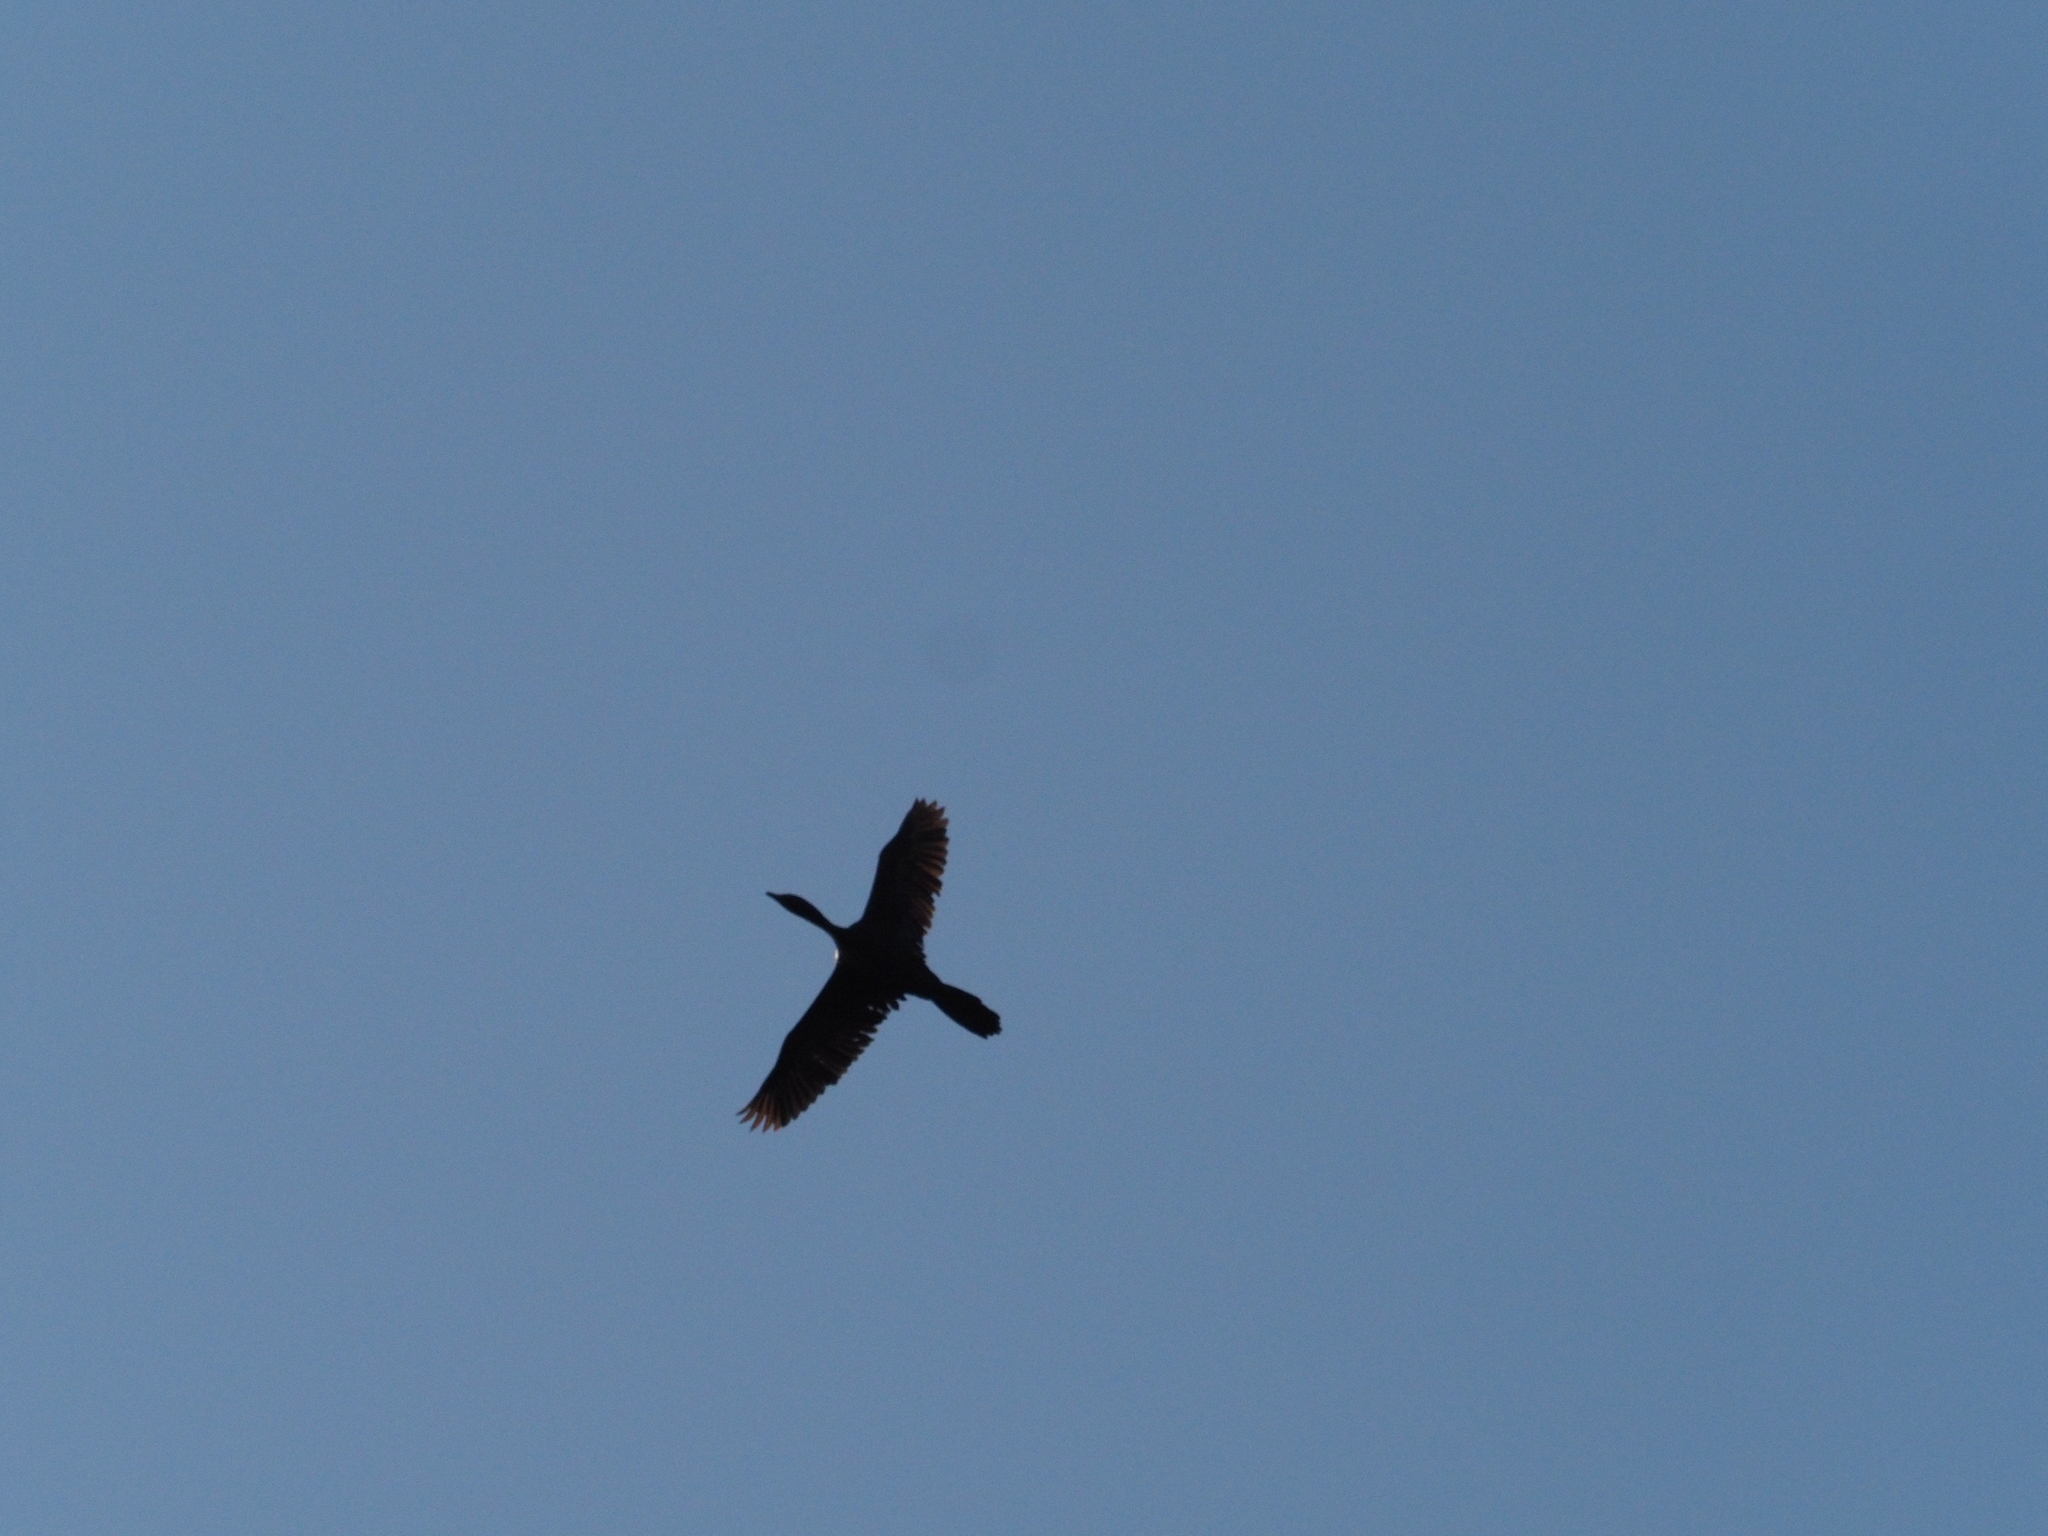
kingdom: Animalia
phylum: Chordata
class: Aves
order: Suliformes
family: Phalacrocoracidae
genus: Microcarbo
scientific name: Microcarbo pygmaeus
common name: Pygmy cormorant
